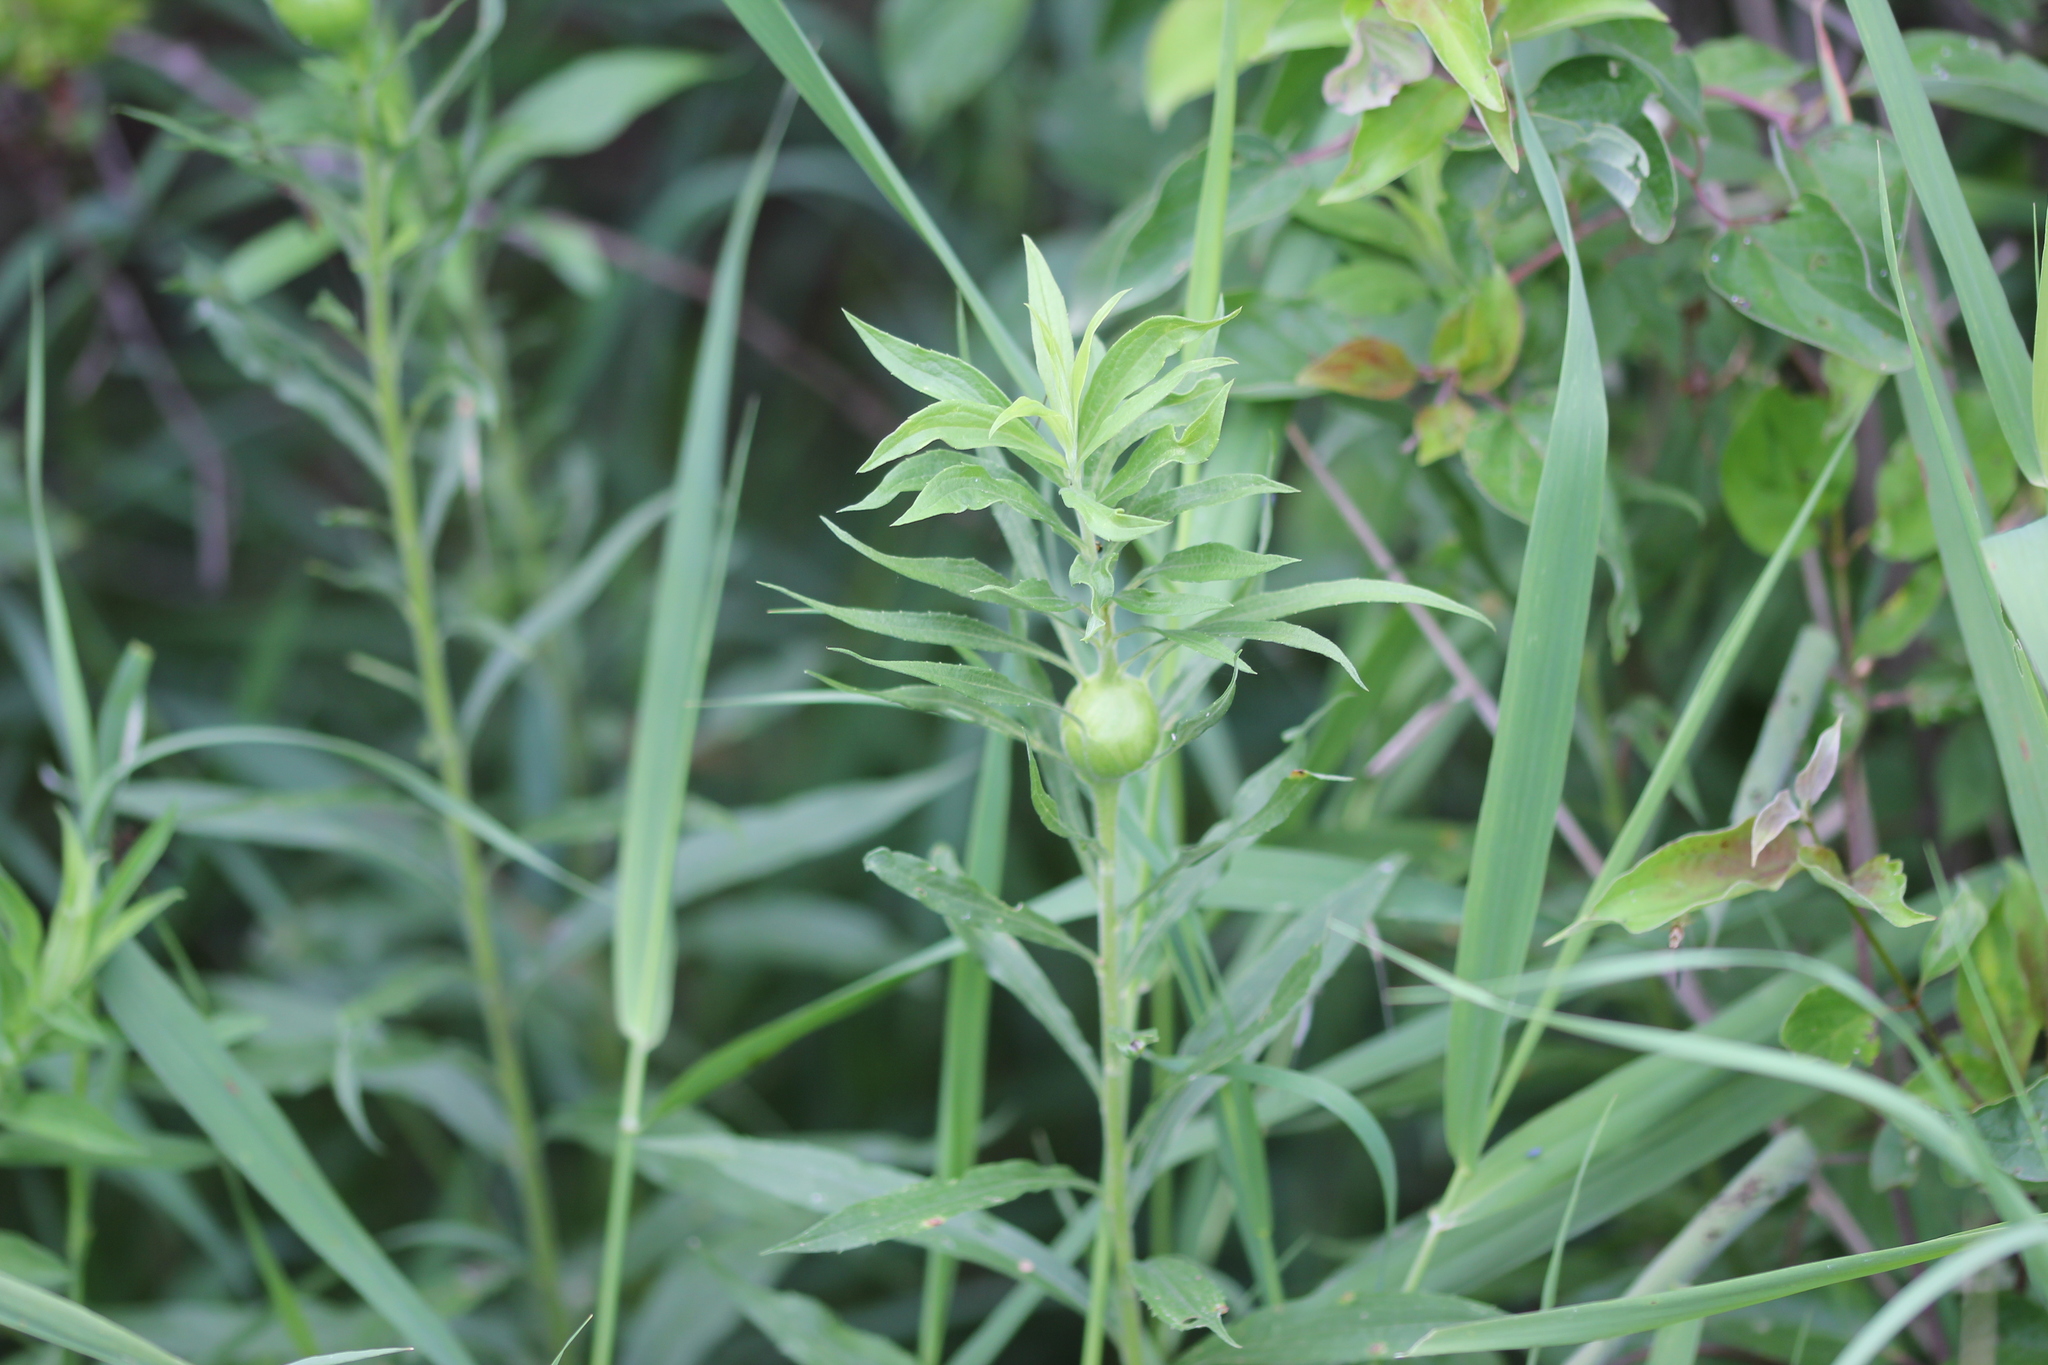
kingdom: Animalia
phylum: Arthropoda
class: Insecta
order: Diptera
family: Tephritidae
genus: Eurosta
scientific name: Eurosta solidaginis
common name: Goldenrod gall fly
